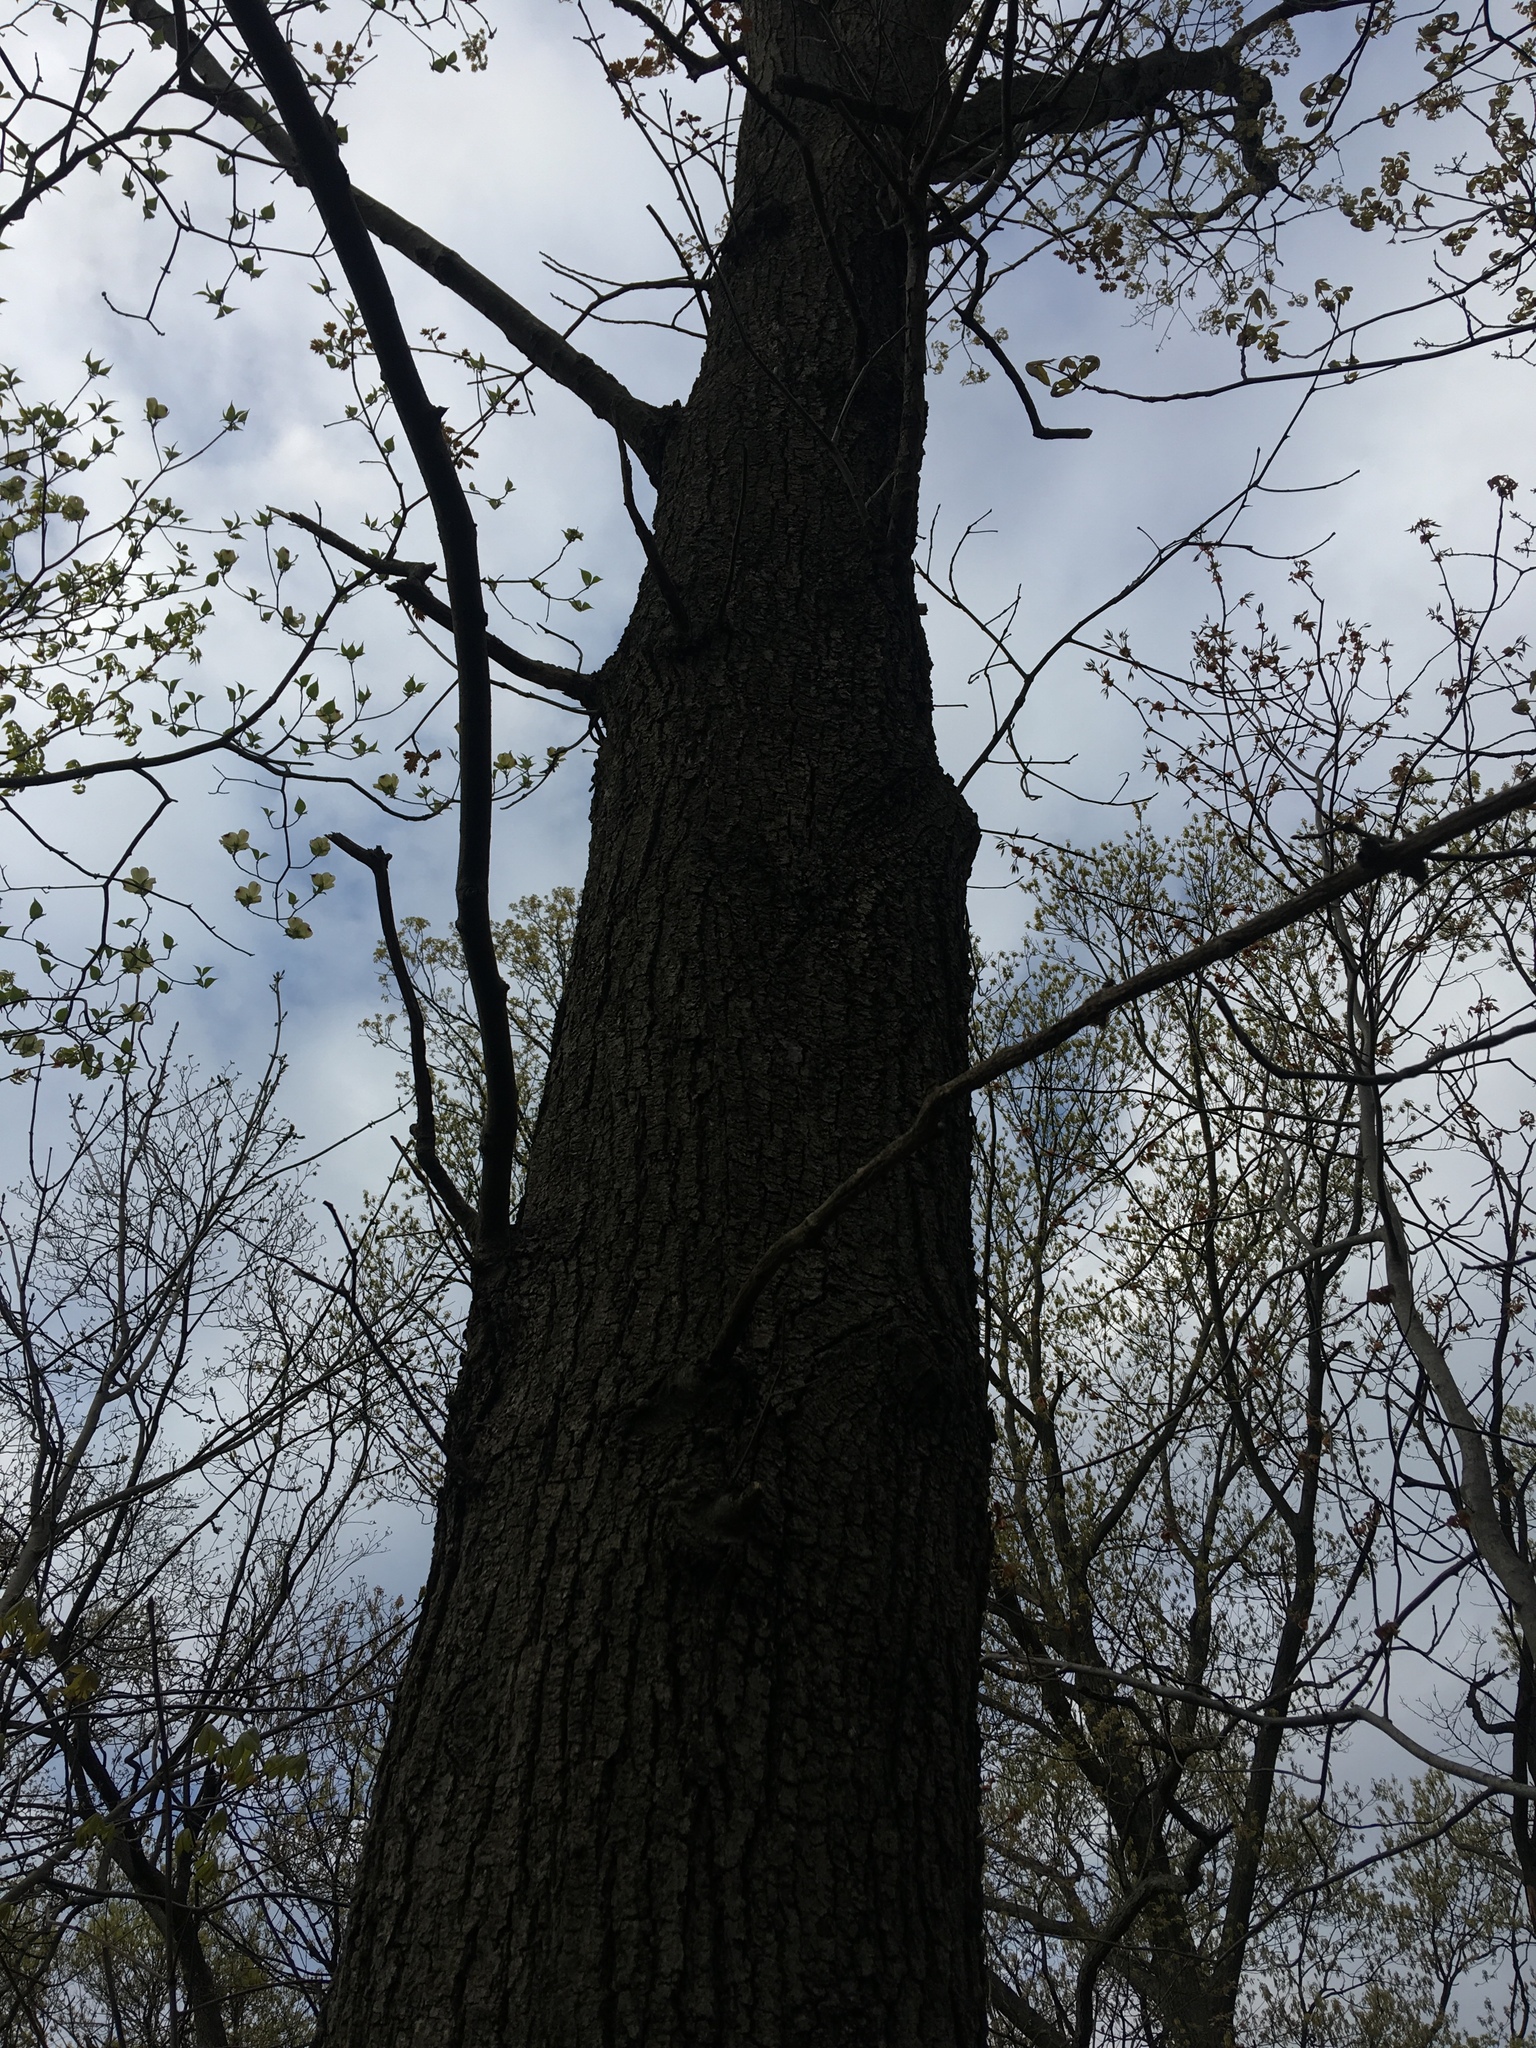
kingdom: Plantae
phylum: Tracheophyta
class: Magnoliopsida
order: Fagales
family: Fagaceae
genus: Quercus
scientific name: Quercus velutina
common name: Black oak
